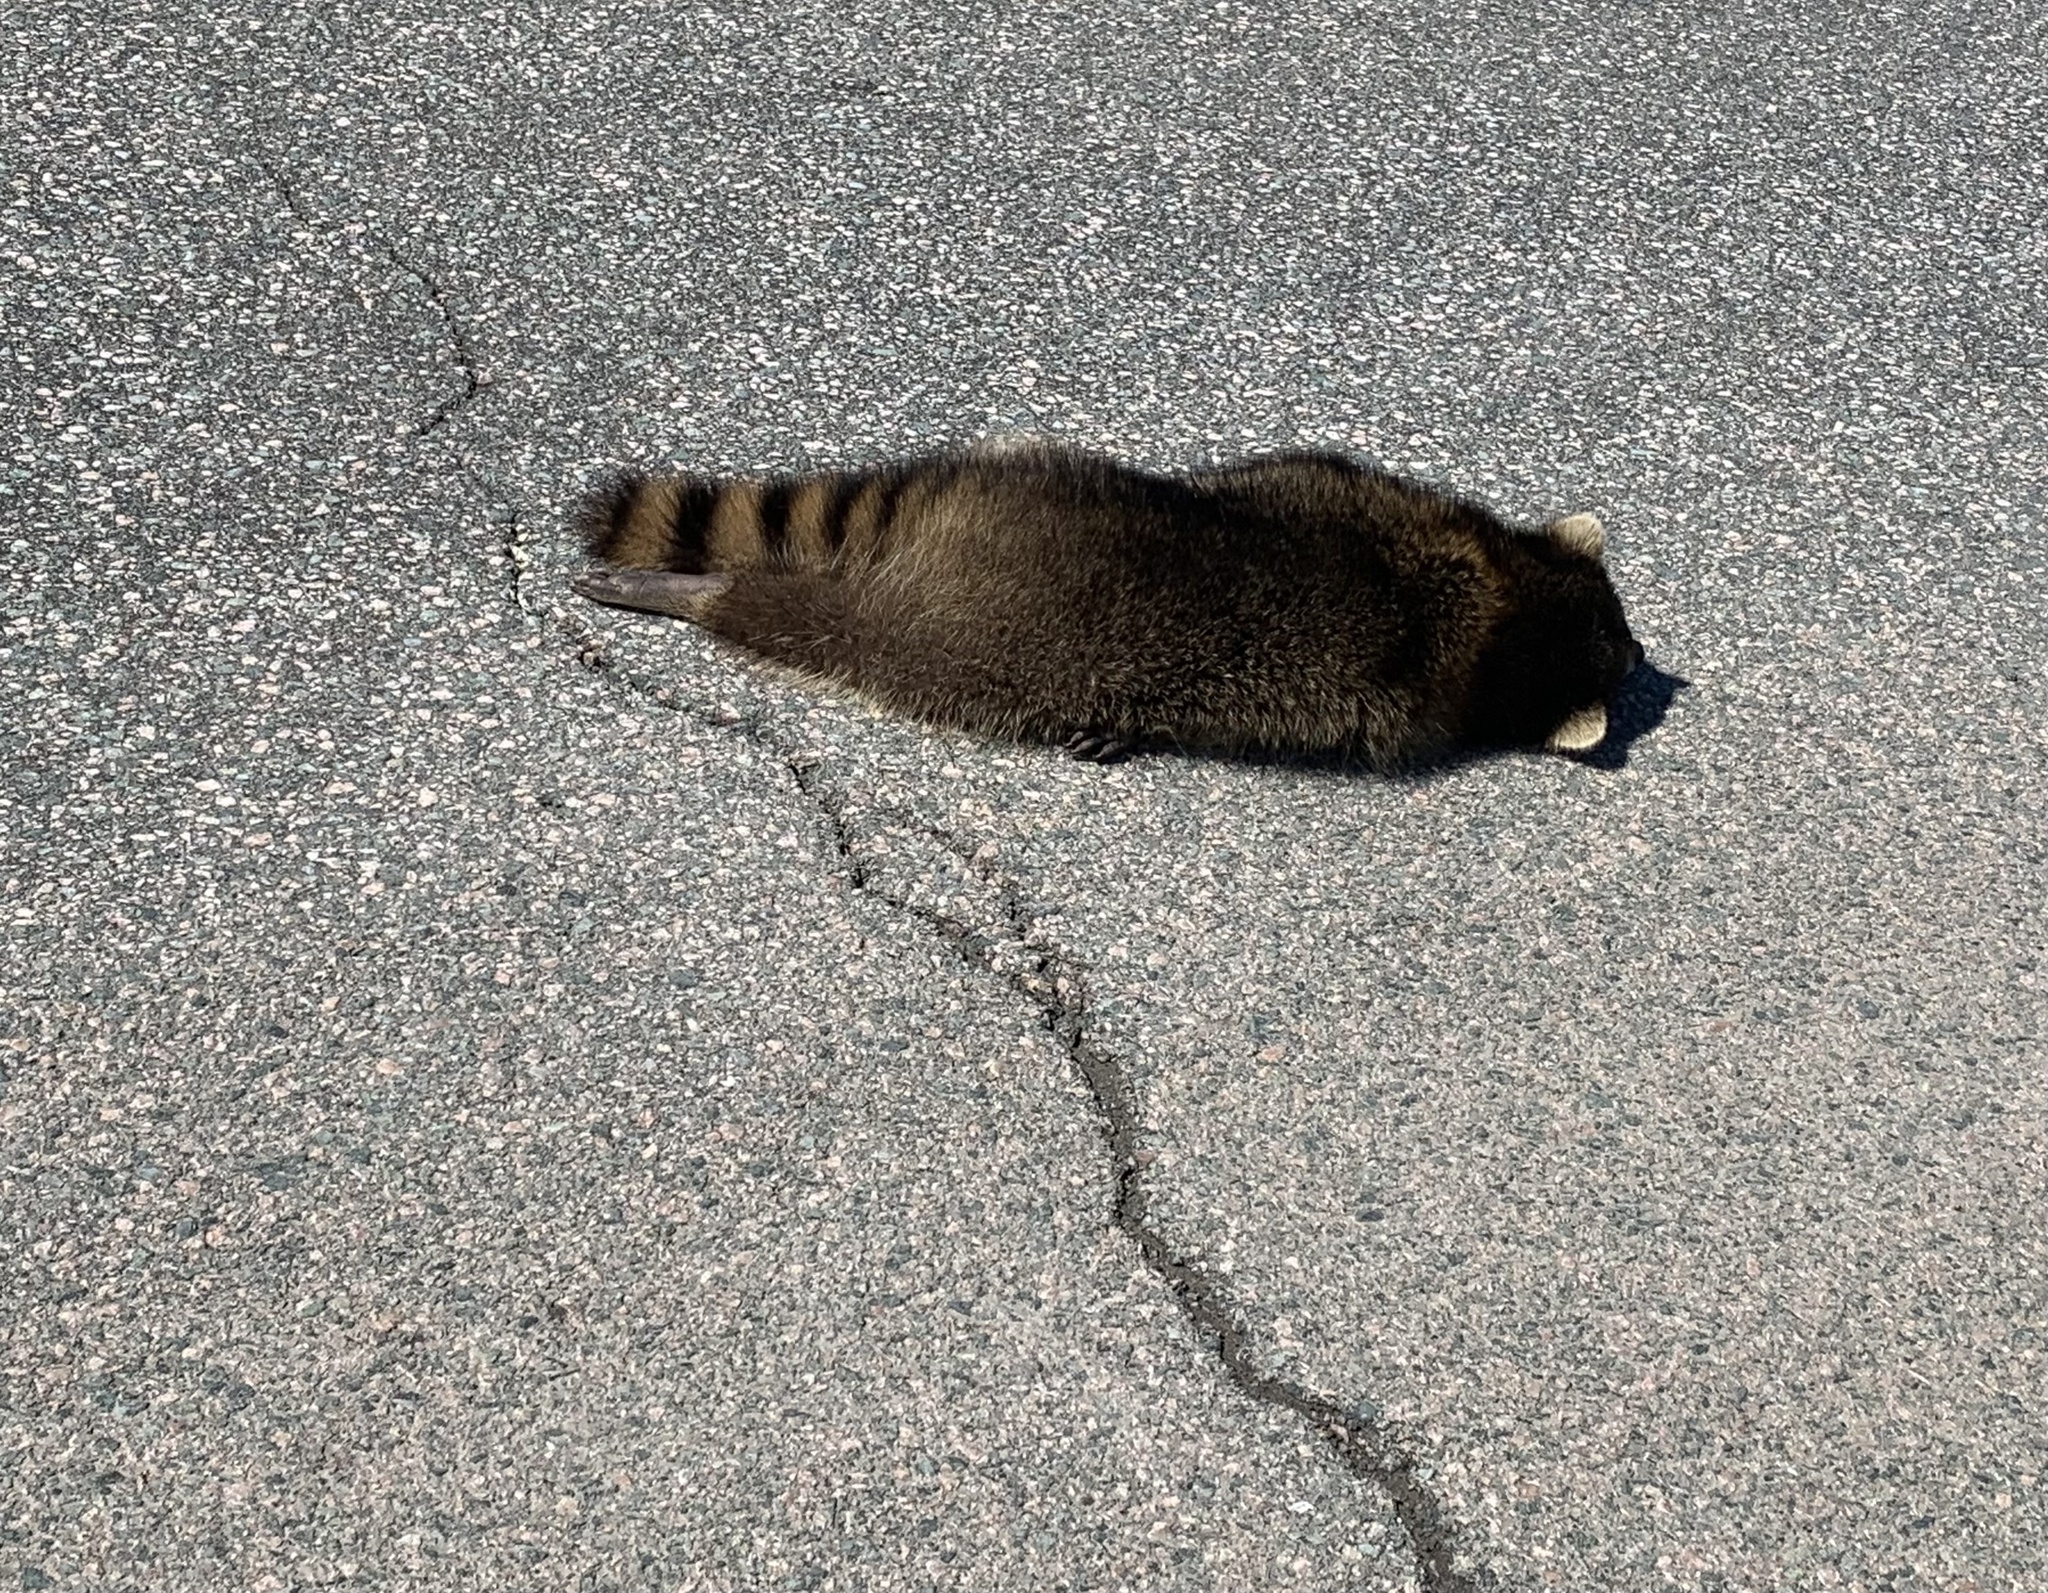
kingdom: Animalia
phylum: Chordata
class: Mammalia
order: Carnivora
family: Procyonidae
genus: Procyon
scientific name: Procyon lotor
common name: Raccoon
